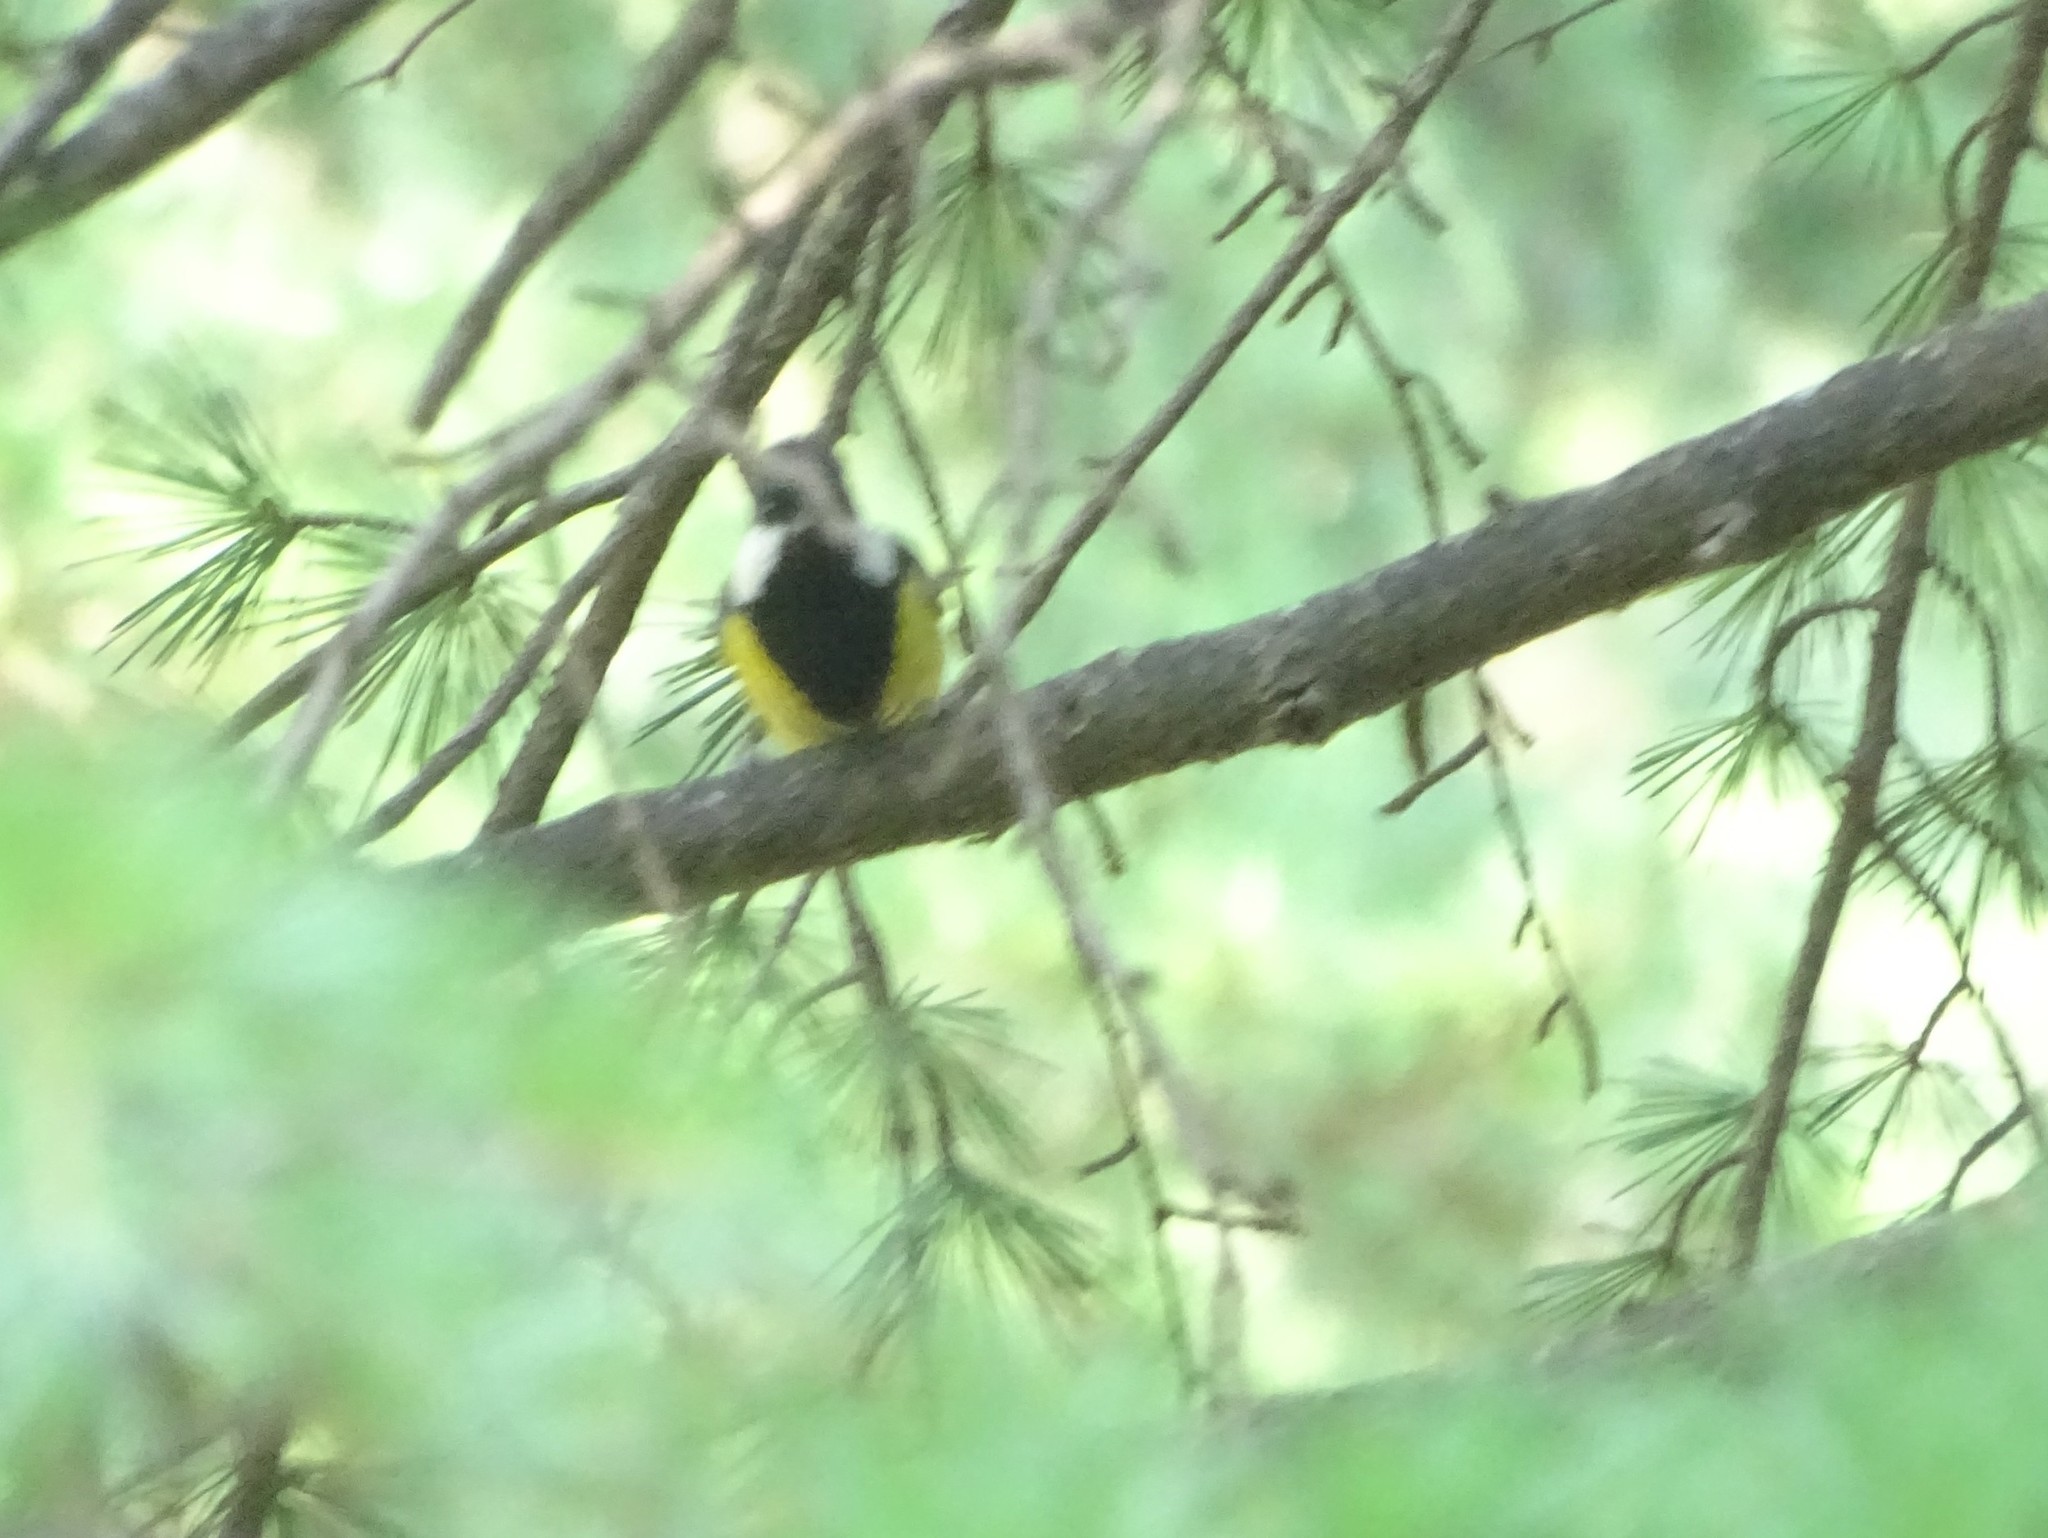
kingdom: Animalia
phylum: Chordata
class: Aves
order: Passeriformes
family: Paridae
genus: Parus
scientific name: Parus monticolus
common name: Green-backed tit
